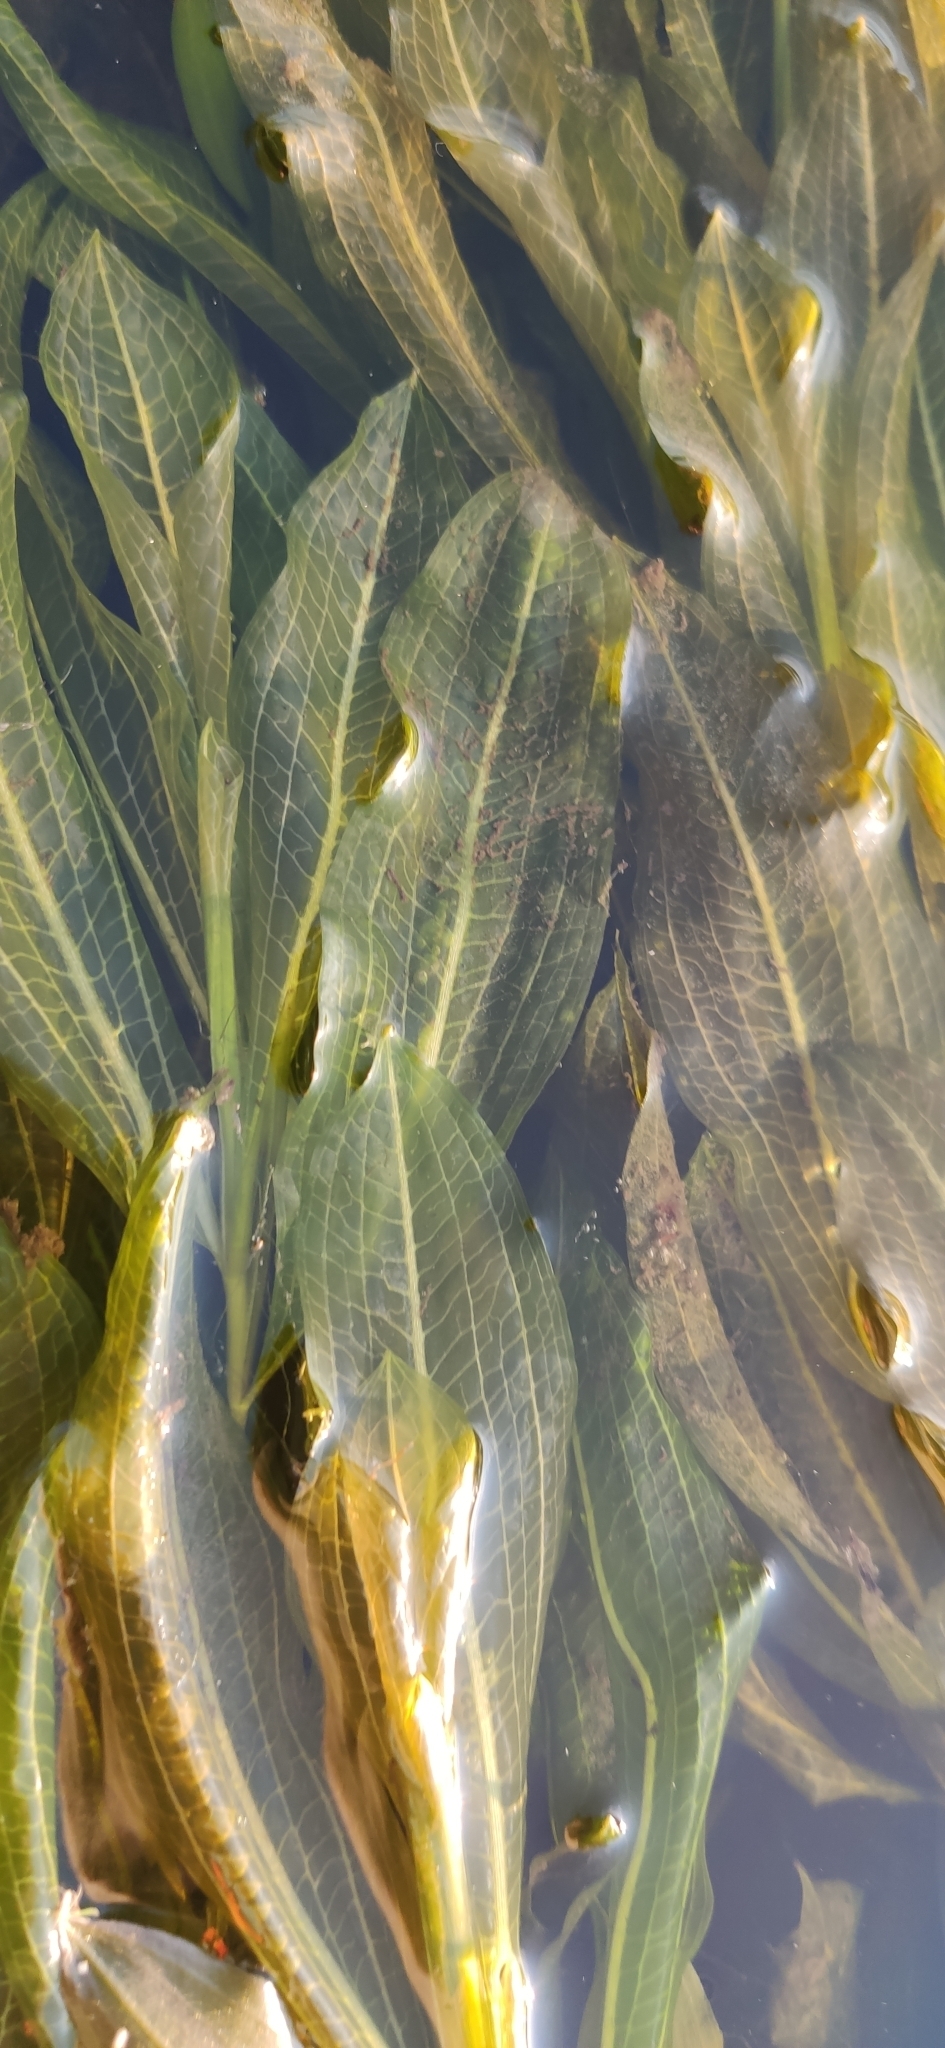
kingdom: Plantae
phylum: Tracheophyta
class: Liliopsida
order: Alismatales
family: Potamogetonaceae
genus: Potamogeton
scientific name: Potamogeton lucens
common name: Shining pondweed
